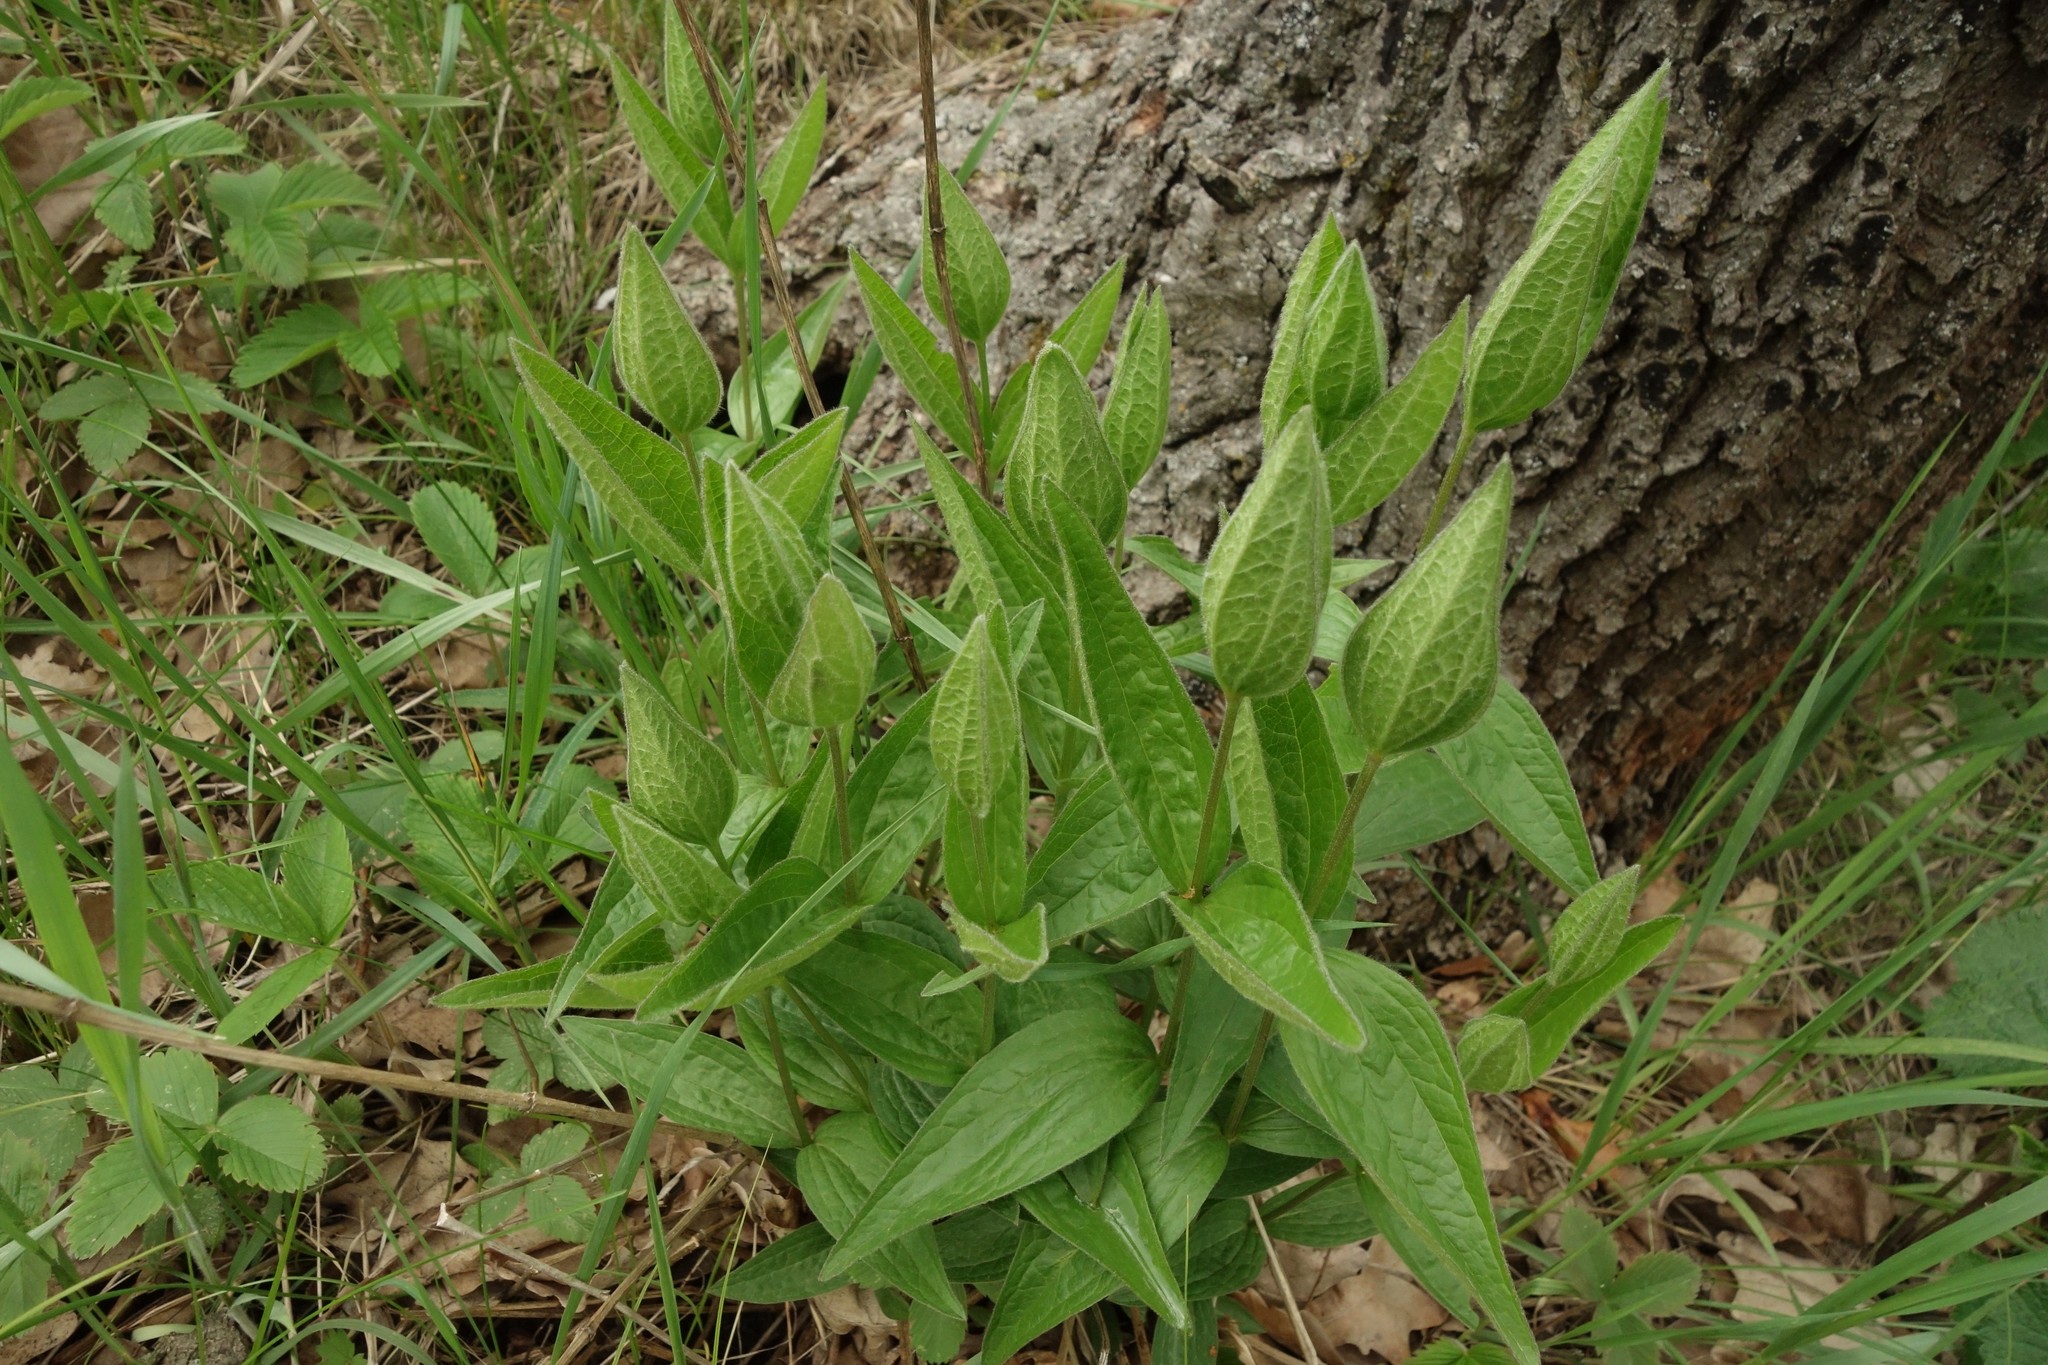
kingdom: Plantae
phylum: Tracheophyta
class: Magnoliopsida
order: Ranunculales
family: Ranunculaceae
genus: Clematis
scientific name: Clematis integrifolia
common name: Solitary clematis
